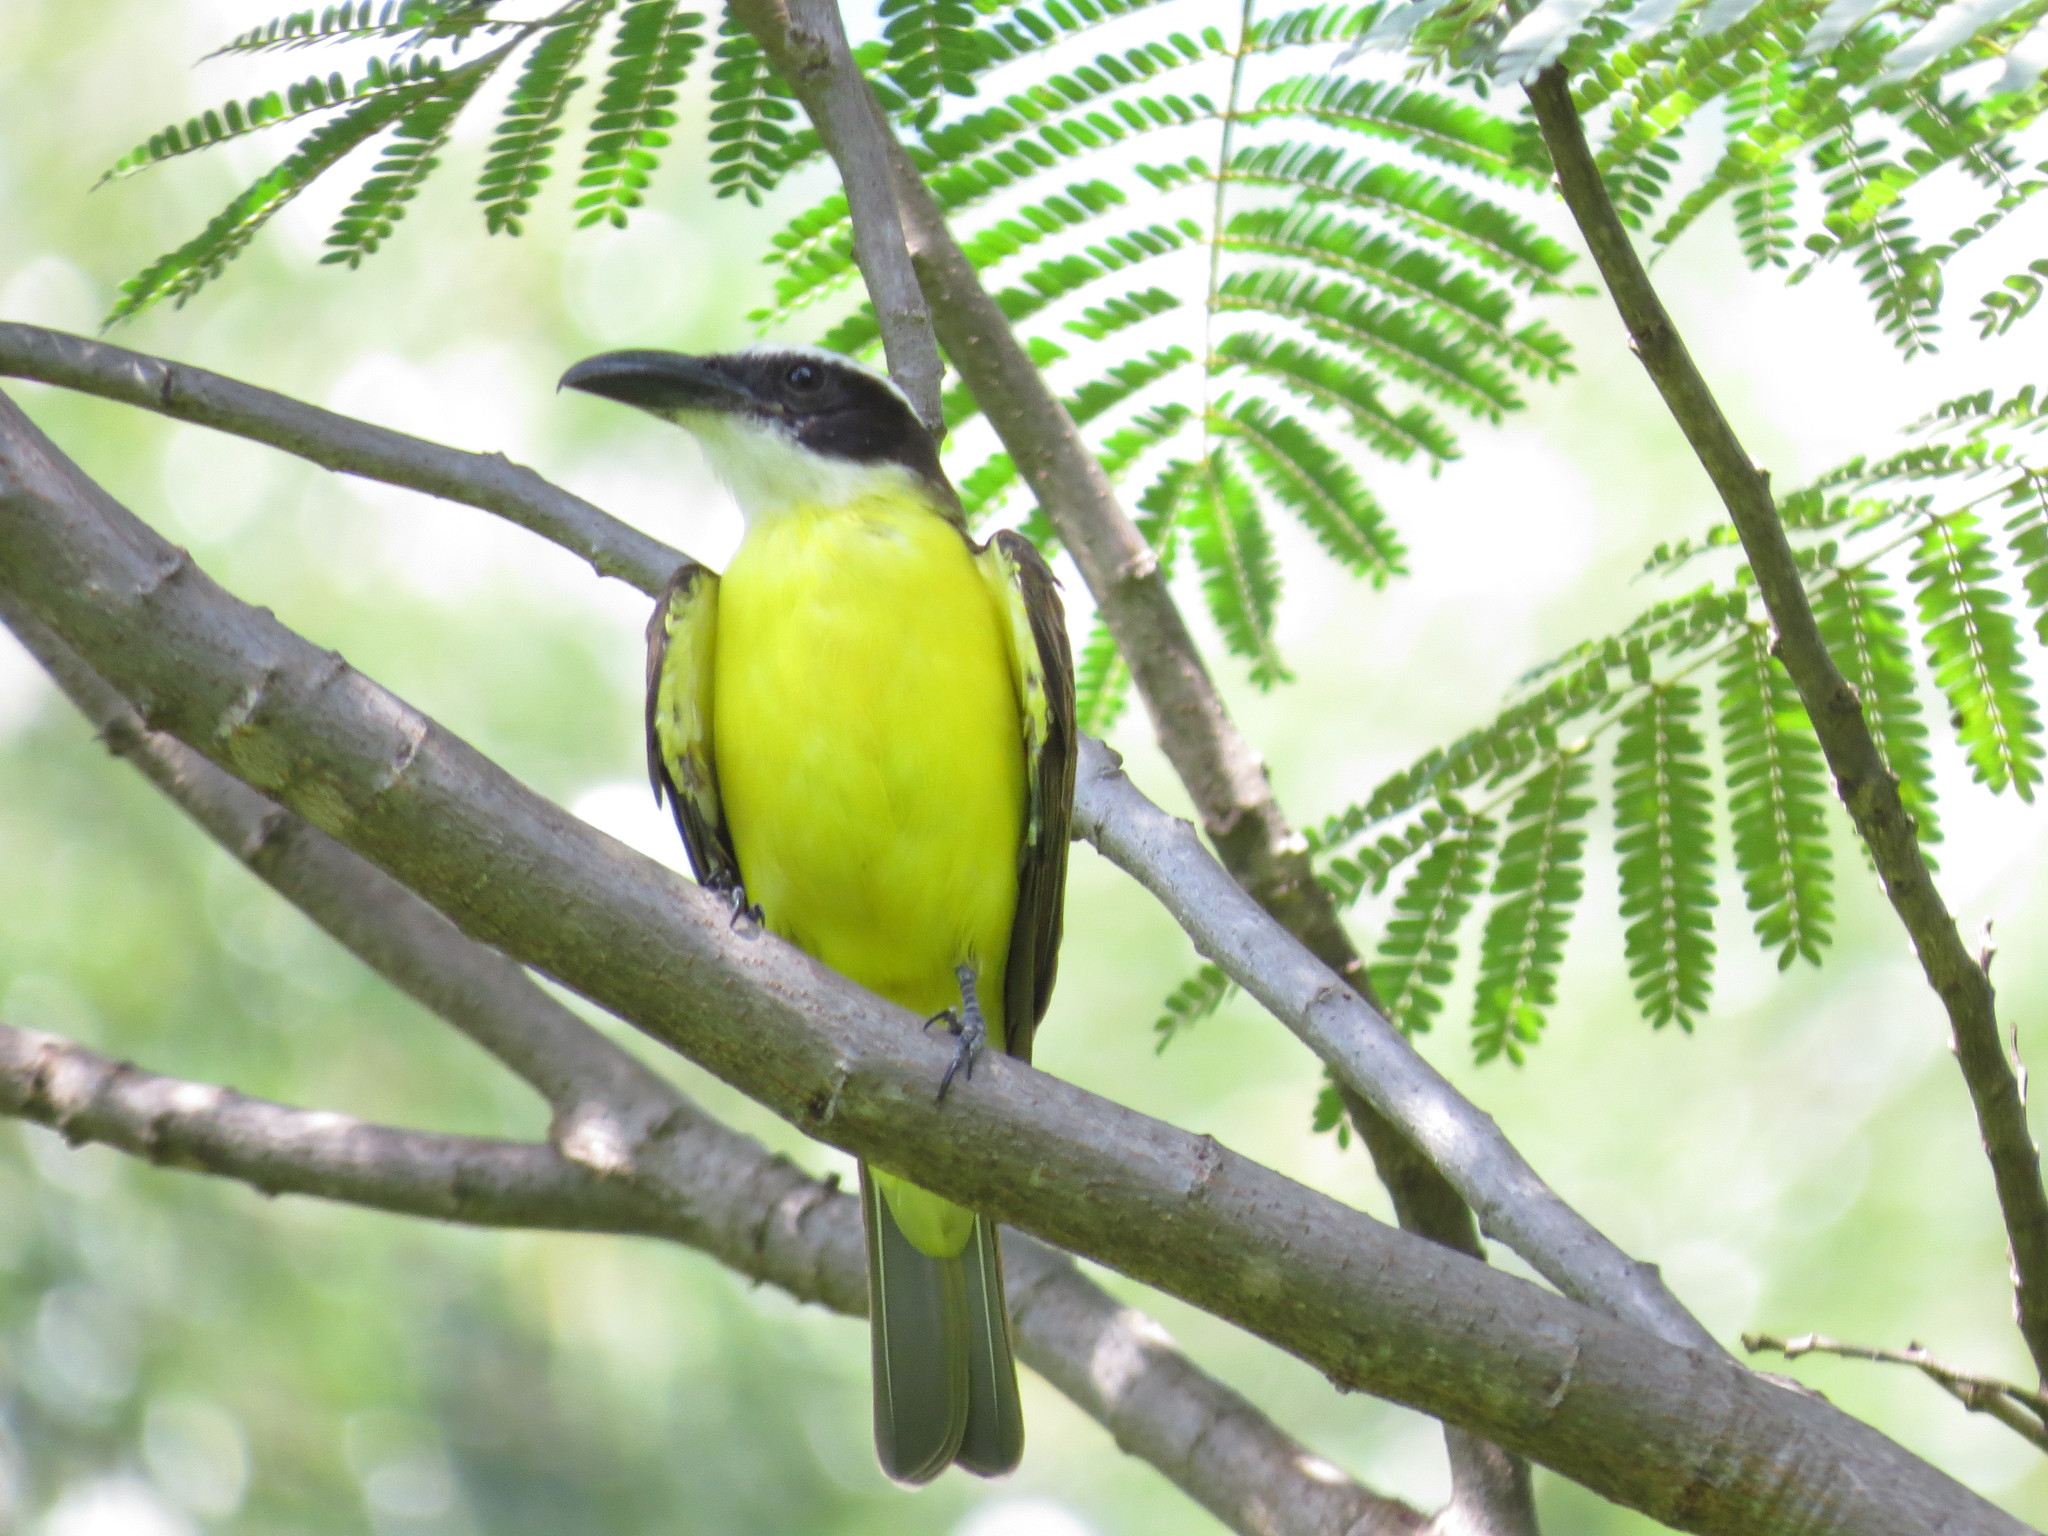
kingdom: Animalia
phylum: Chordata
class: Aves
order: Passeriformes
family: Tyrannidae
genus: Megarynchus
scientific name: Megarynchus pitangua
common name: Boat-billed flycatcher
